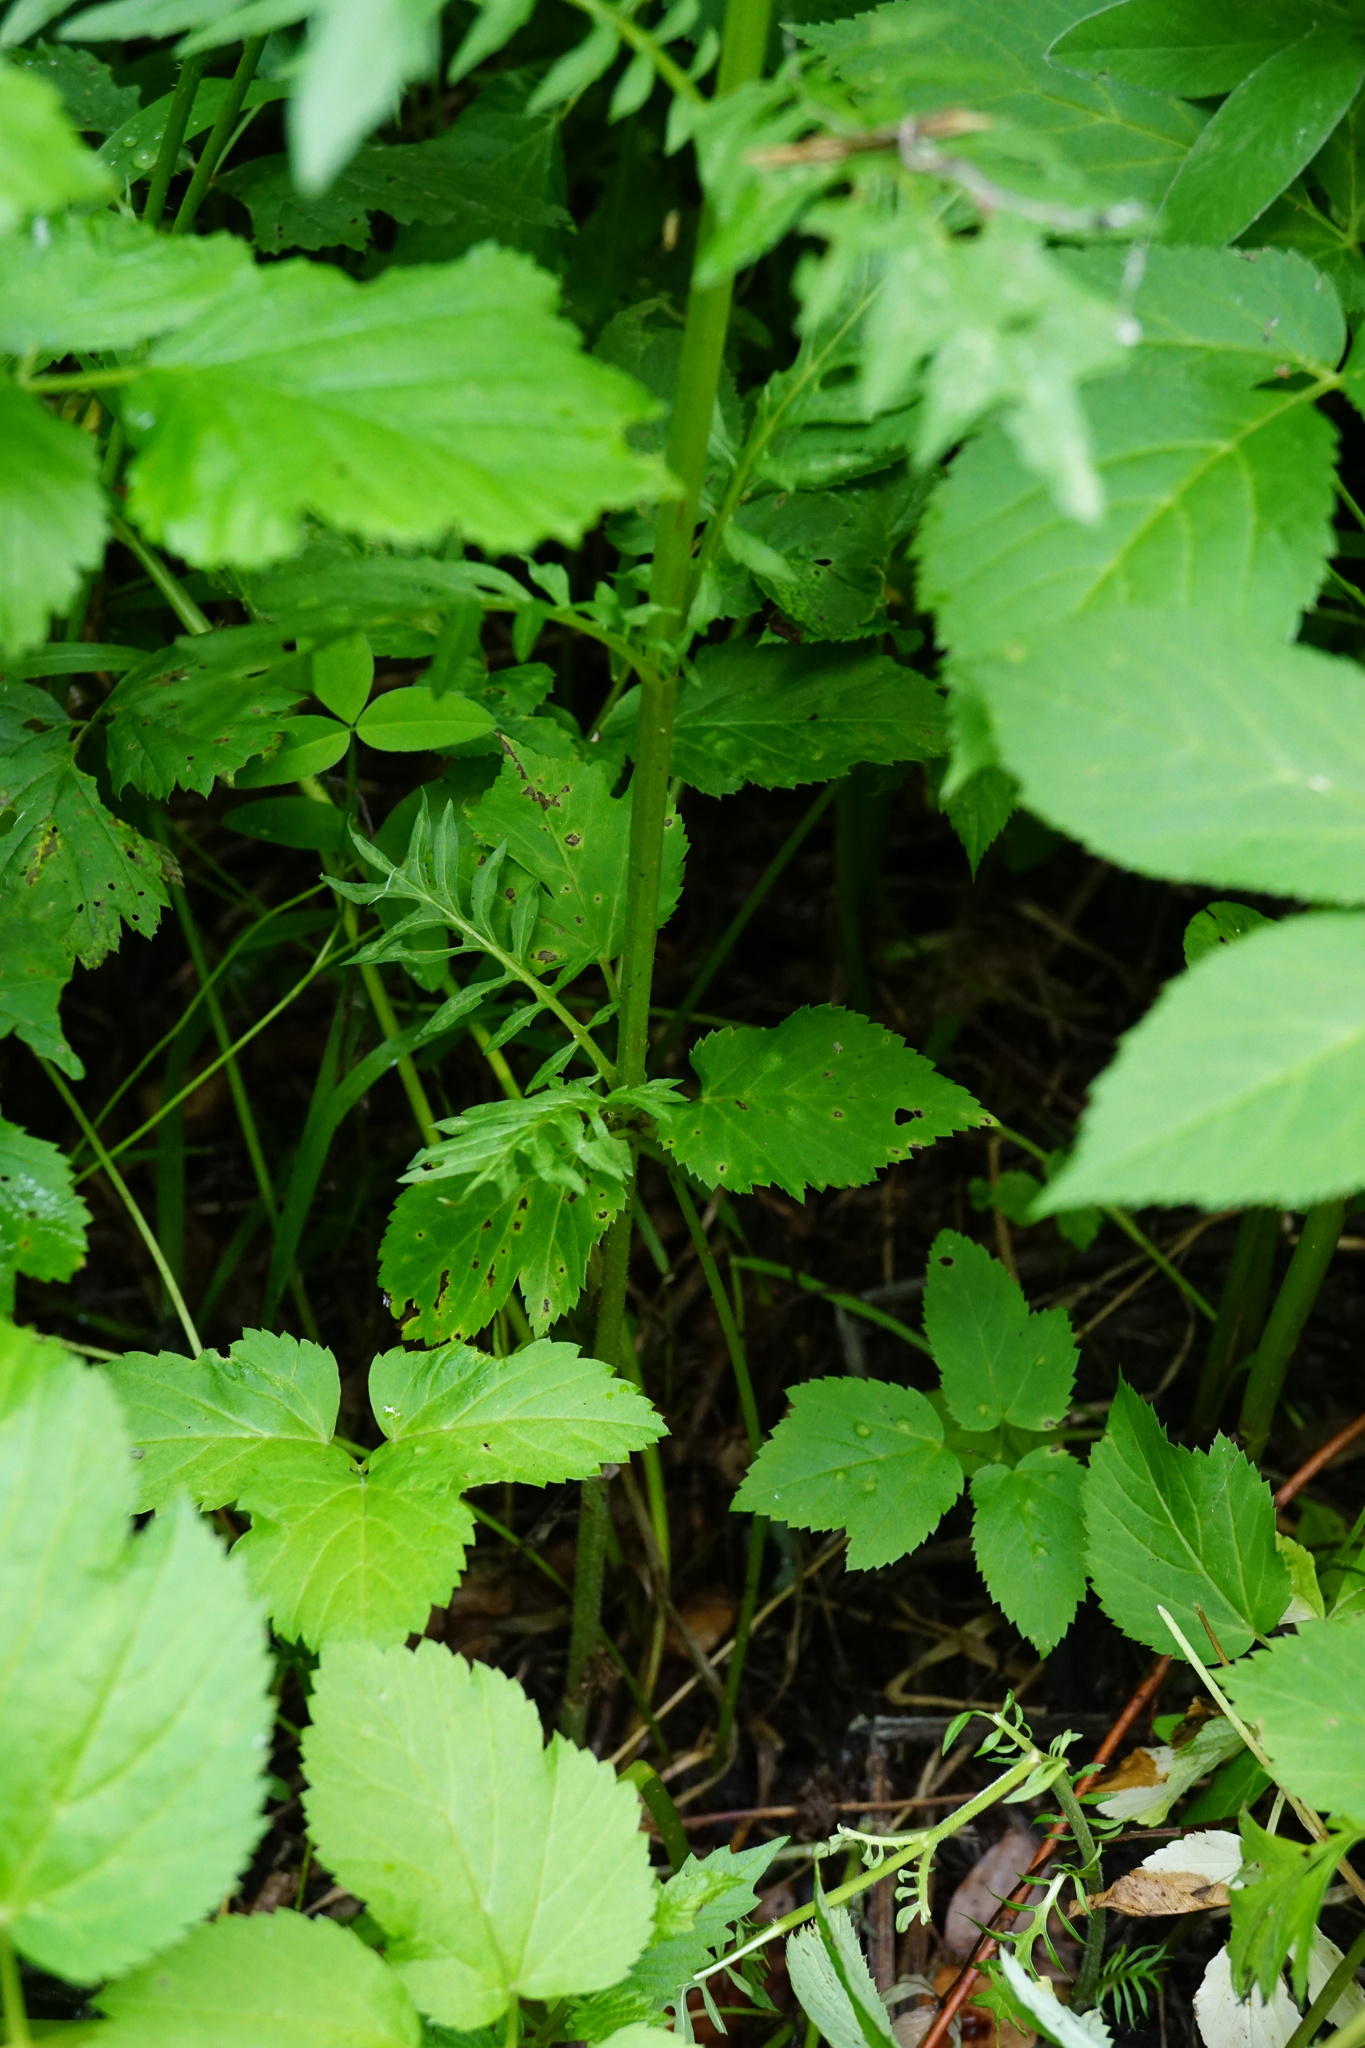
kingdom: Plantae
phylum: Tracheophyta
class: Magnoliopsida
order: Lamiales
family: Lamiaceae
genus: Lycopus
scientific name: Lycopus europaeus
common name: European bugleweed
